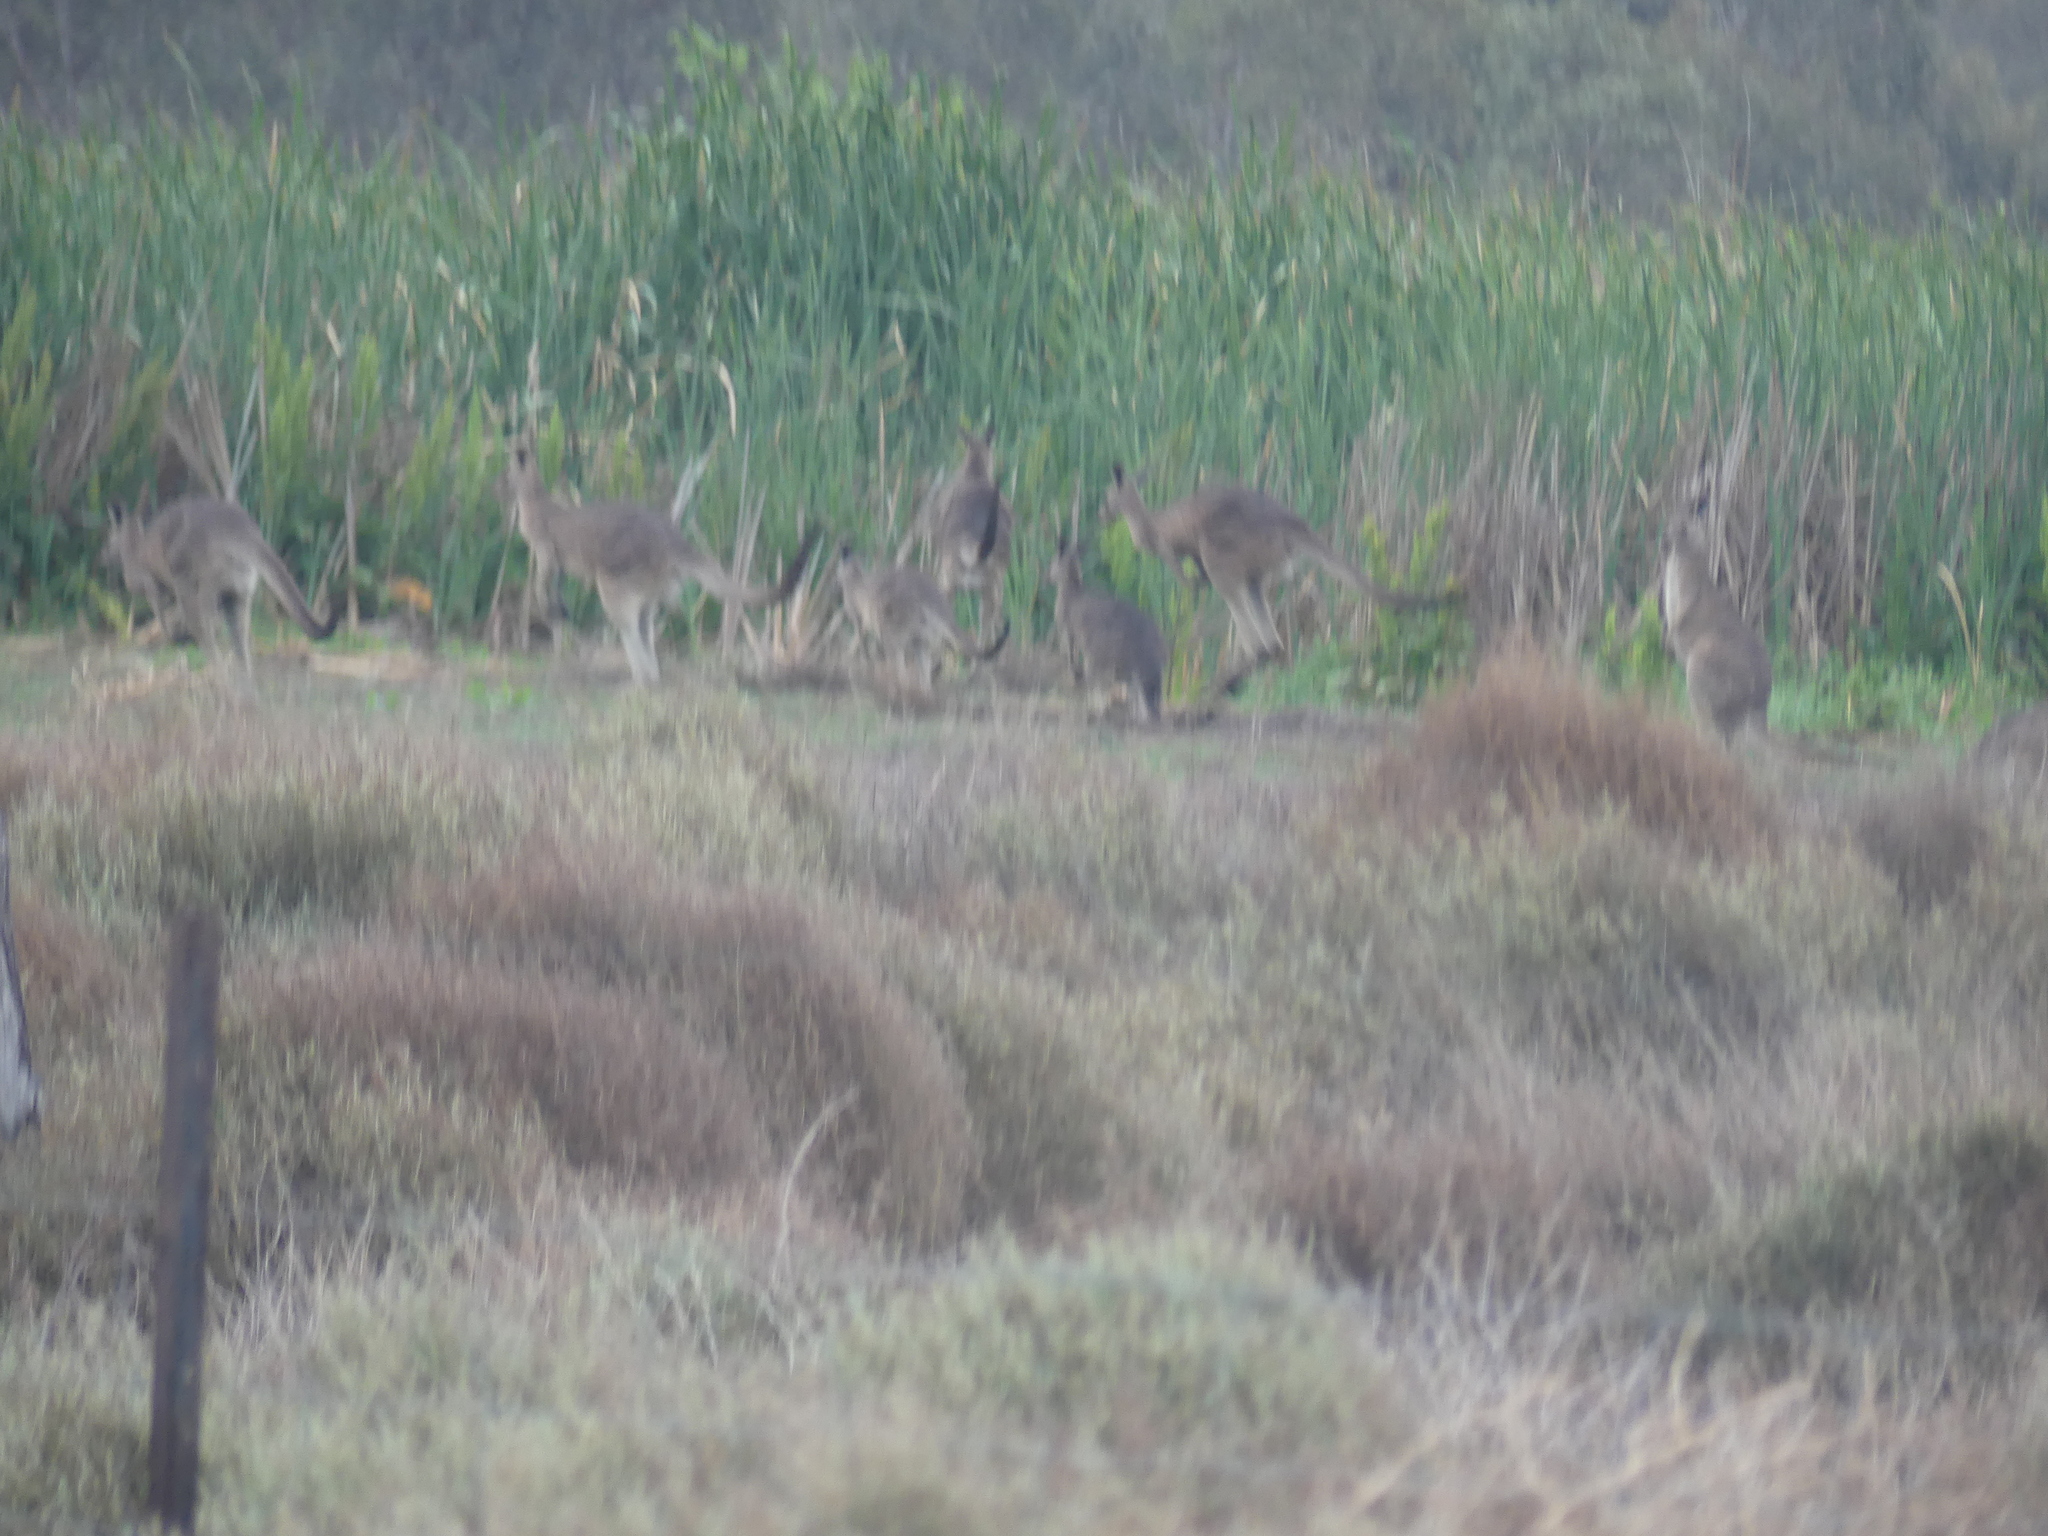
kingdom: Animalia
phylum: Chordata
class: Mammalia
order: Diprotodontia
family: Macropodidae
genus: Macropus
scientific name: Macropus giganteus
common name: Eastern grey kangaroo
